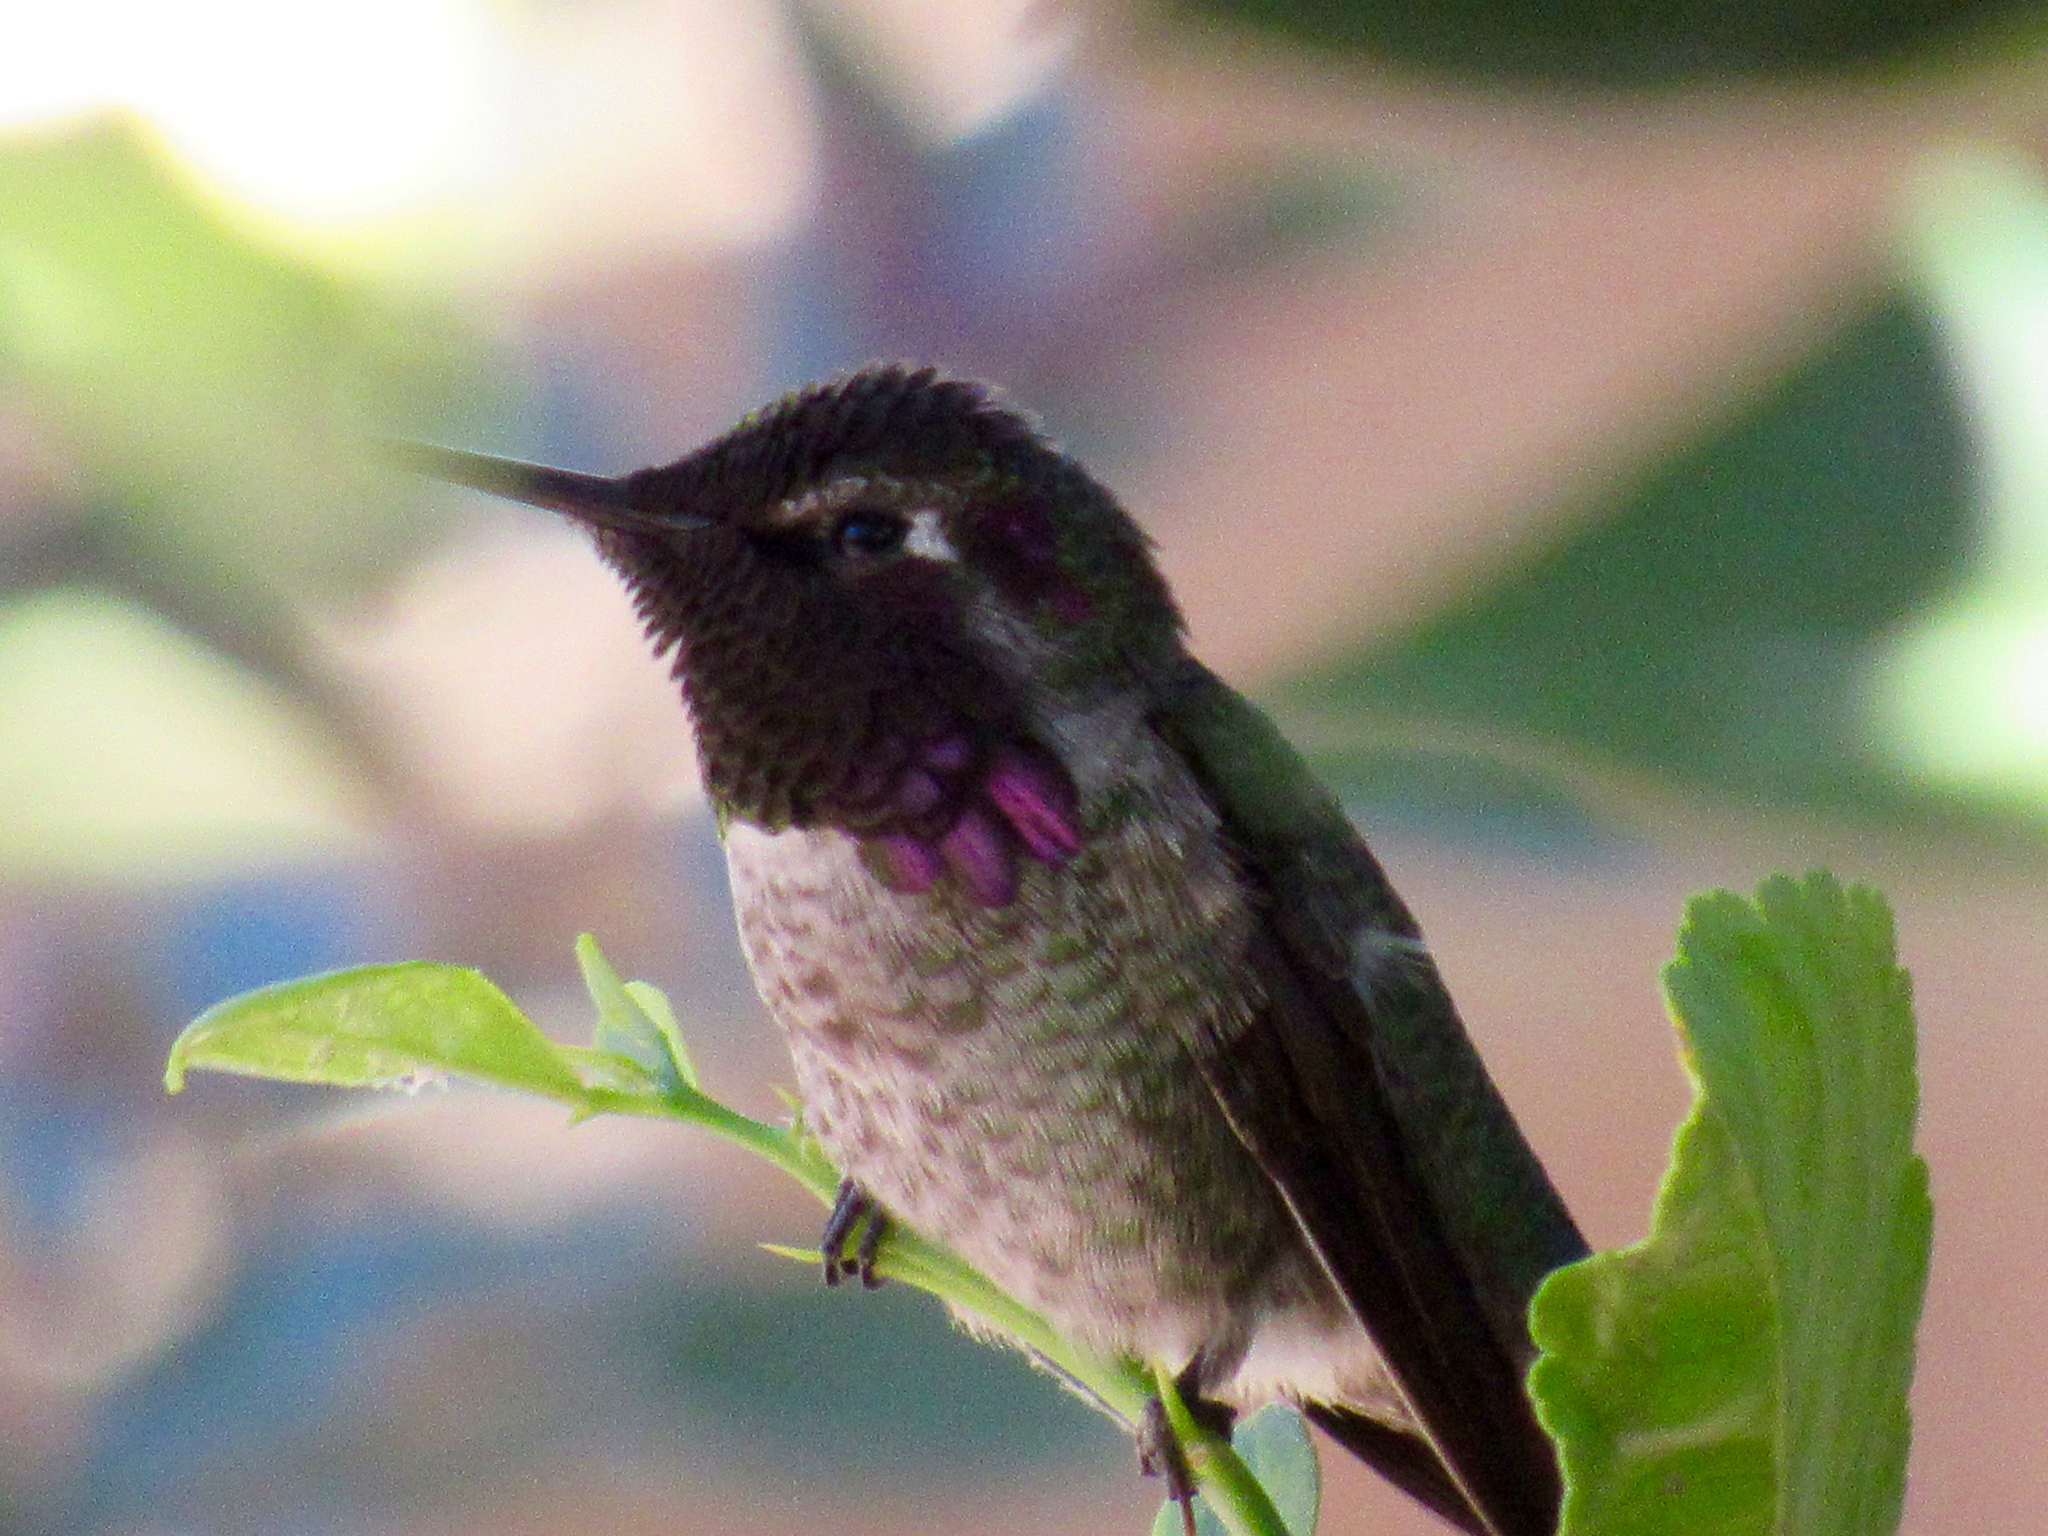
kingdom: Animalia
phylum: Chordata
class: Aves
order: Apodiformes
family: Trochilidae
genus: Calypte
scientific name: Calypte anna
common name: Anna's hummingbird
